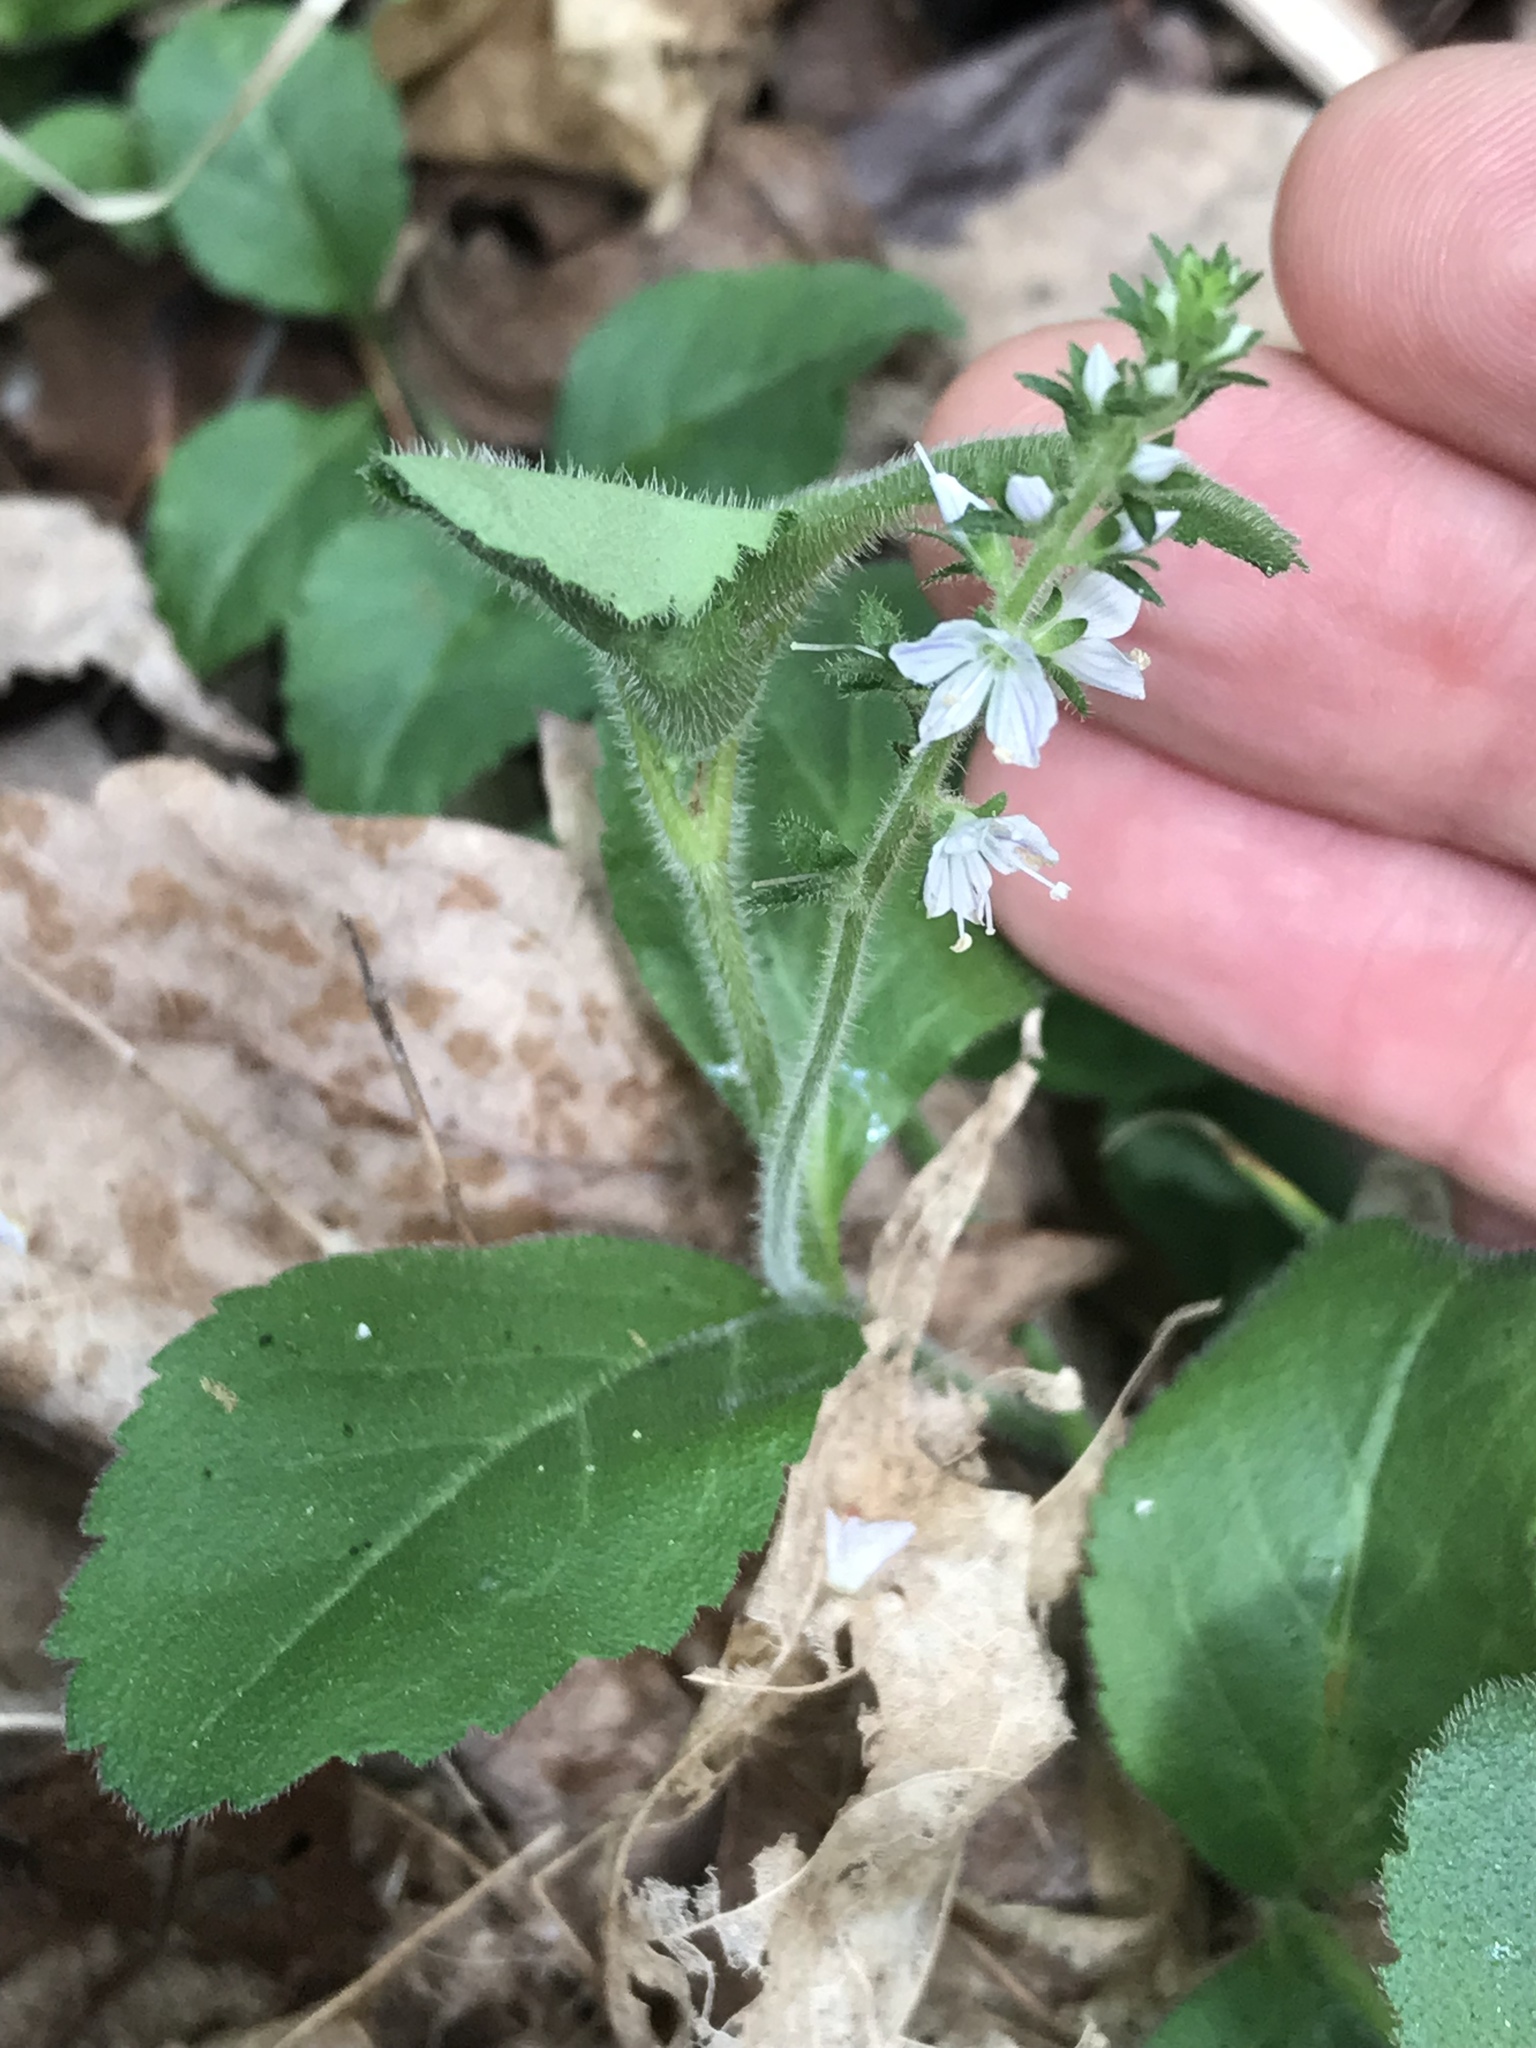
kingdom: Plantae
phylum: Tracheophyta
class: Magnoliopsida
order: Lamiales
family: Plantaginaceae
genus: Veronica
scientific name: Veronica officinalis
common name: Common speedwell
